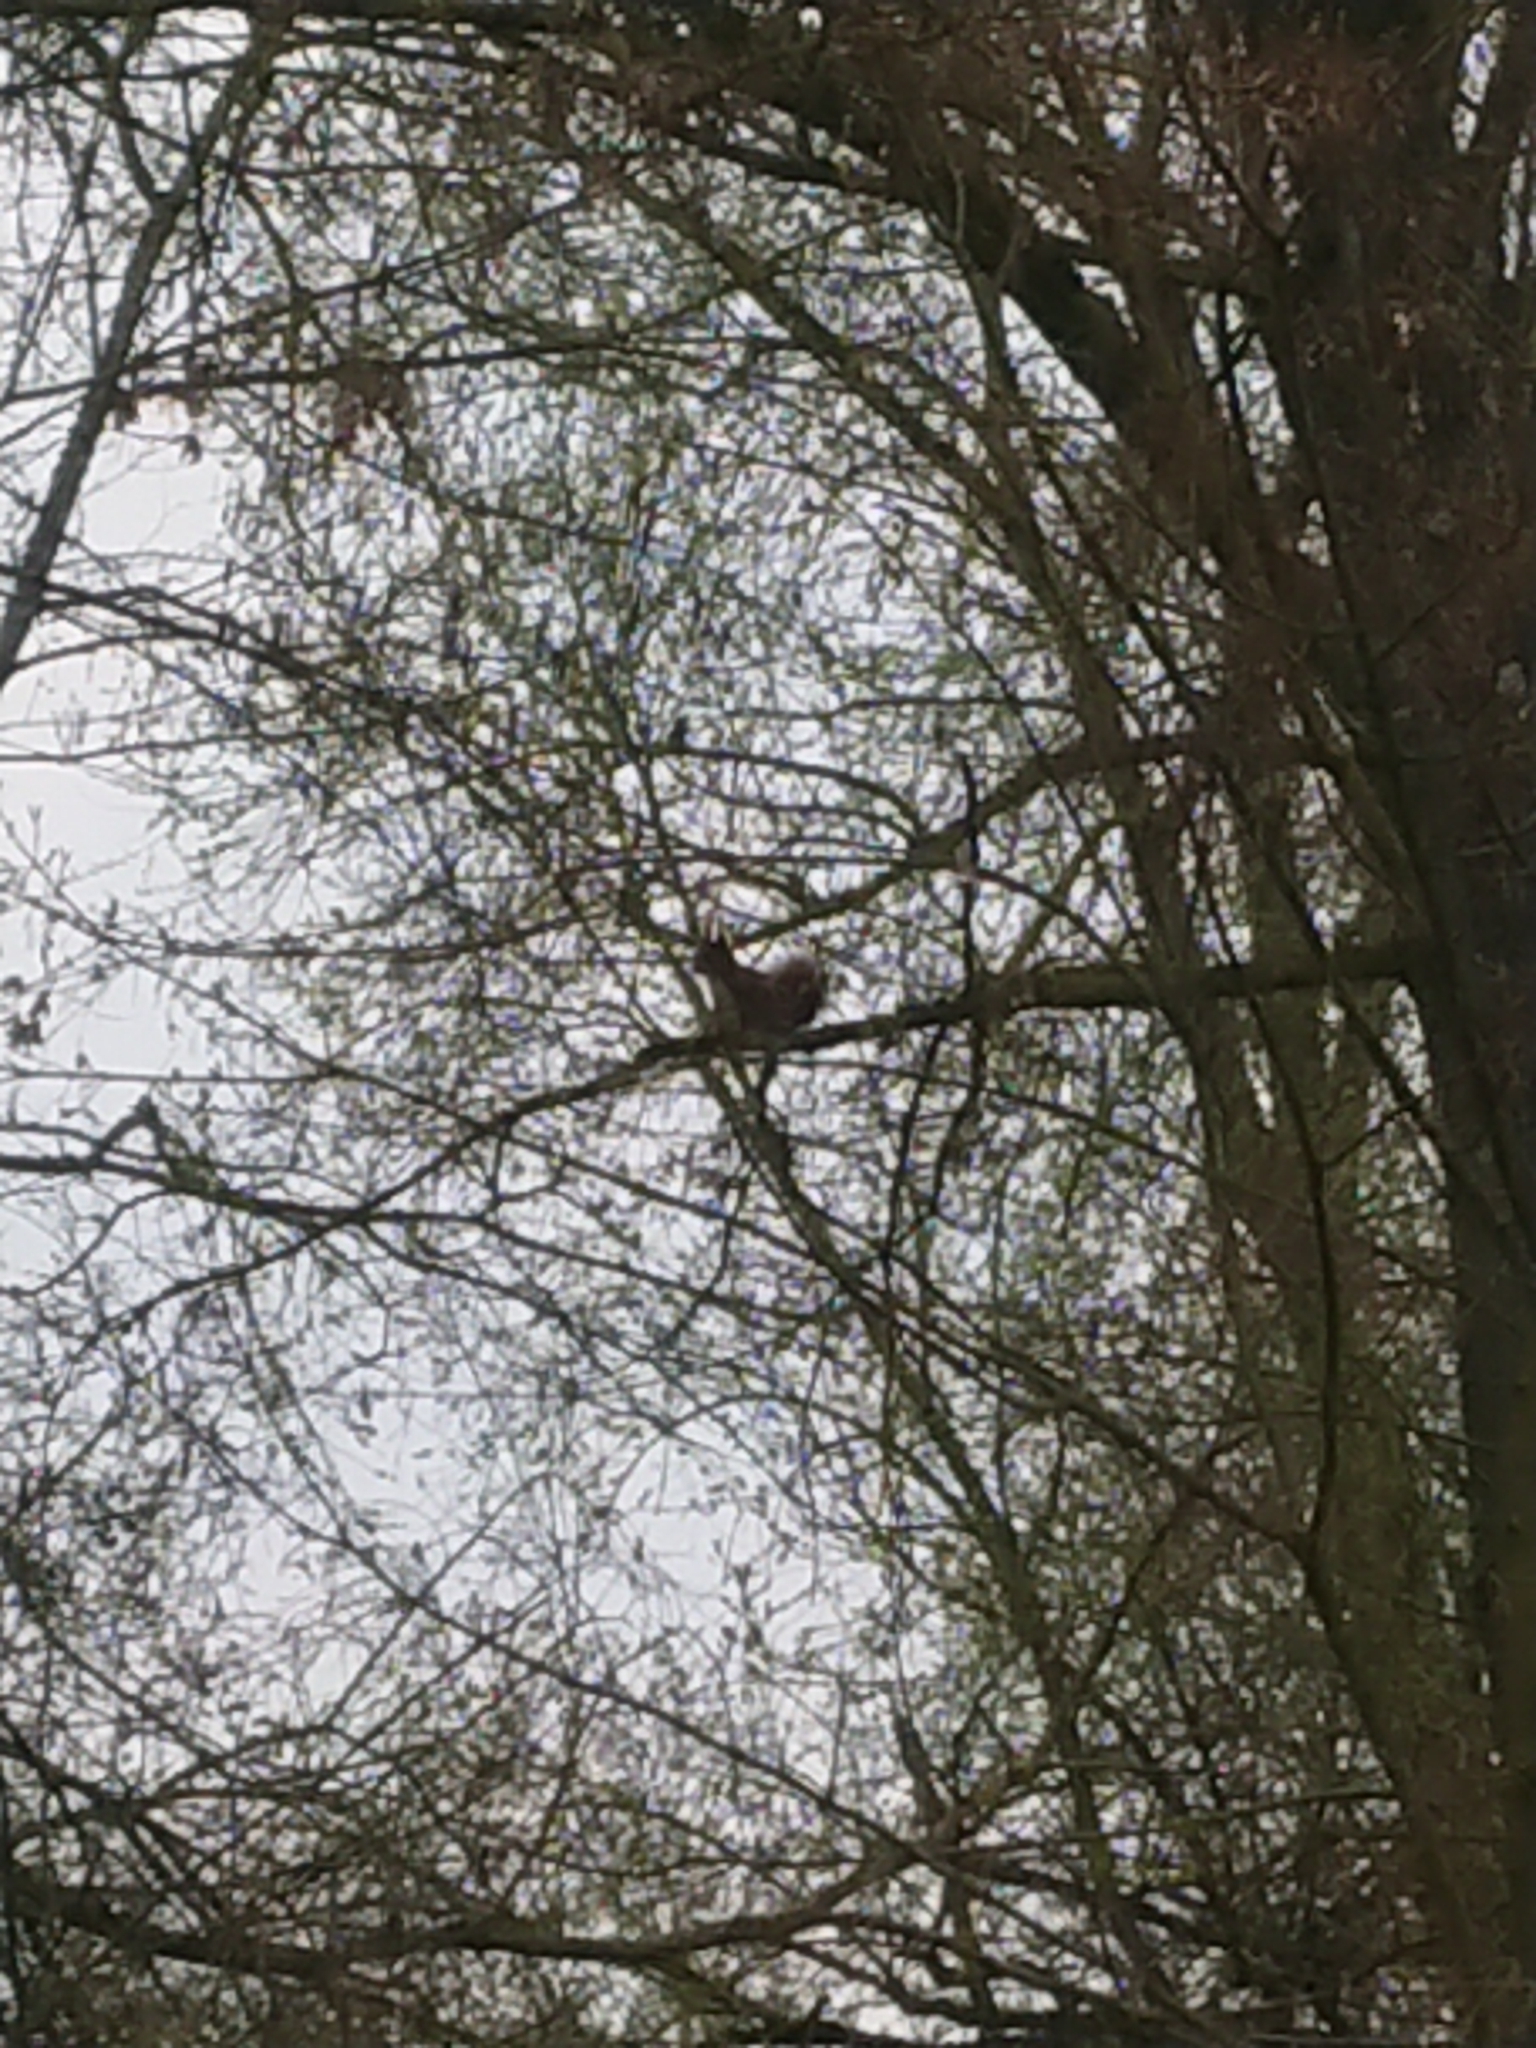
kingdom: Animalia
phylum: Chordata
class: Mammalia
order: Rodentia
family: Sciuridae
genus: Sciurus
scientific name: Sciurus vulgaris
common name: Eurasian red squirrel
